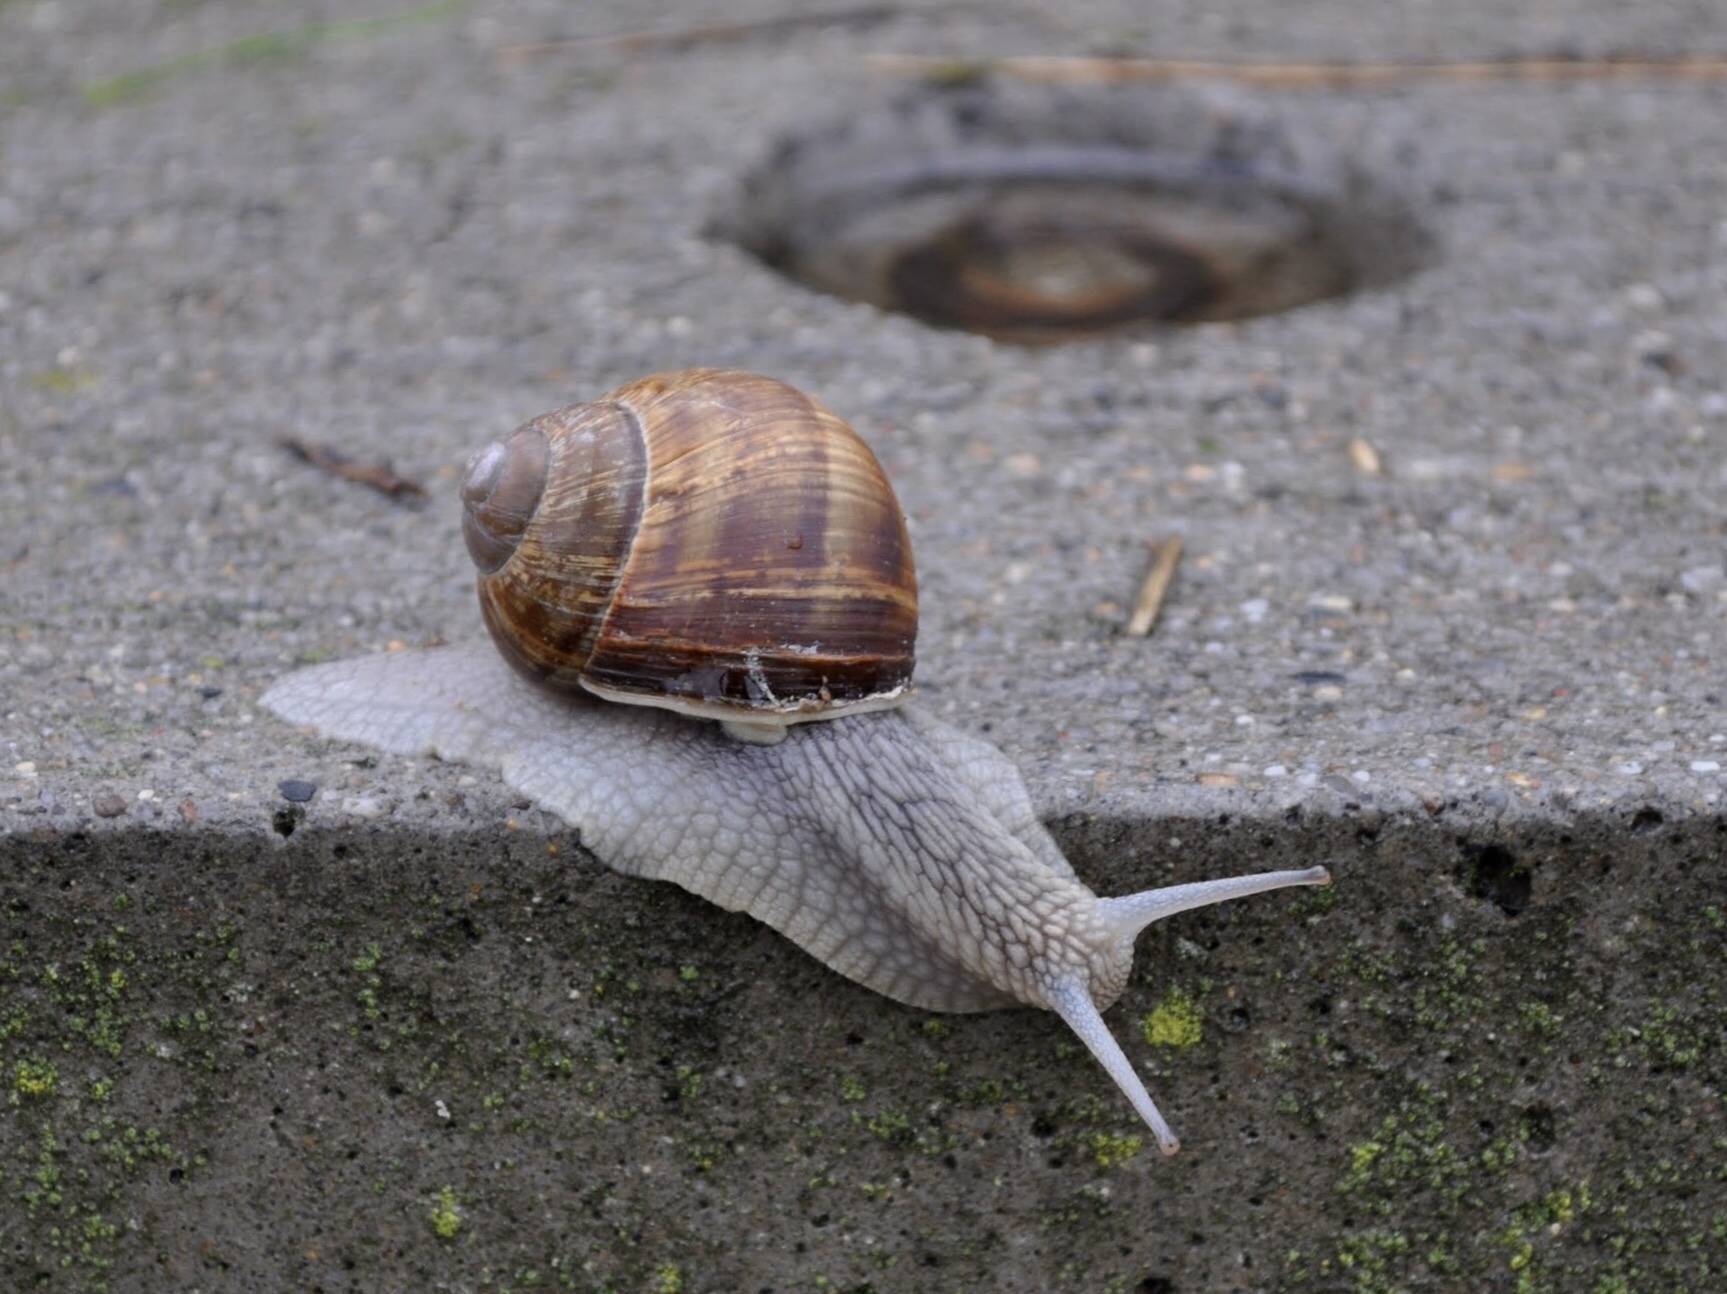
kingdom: Animalia
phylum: Mollusca
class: Gastropoda
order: Stylommatophora
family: Helicidae
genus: Helix
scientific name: Helix pomatia
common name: Roman snail
